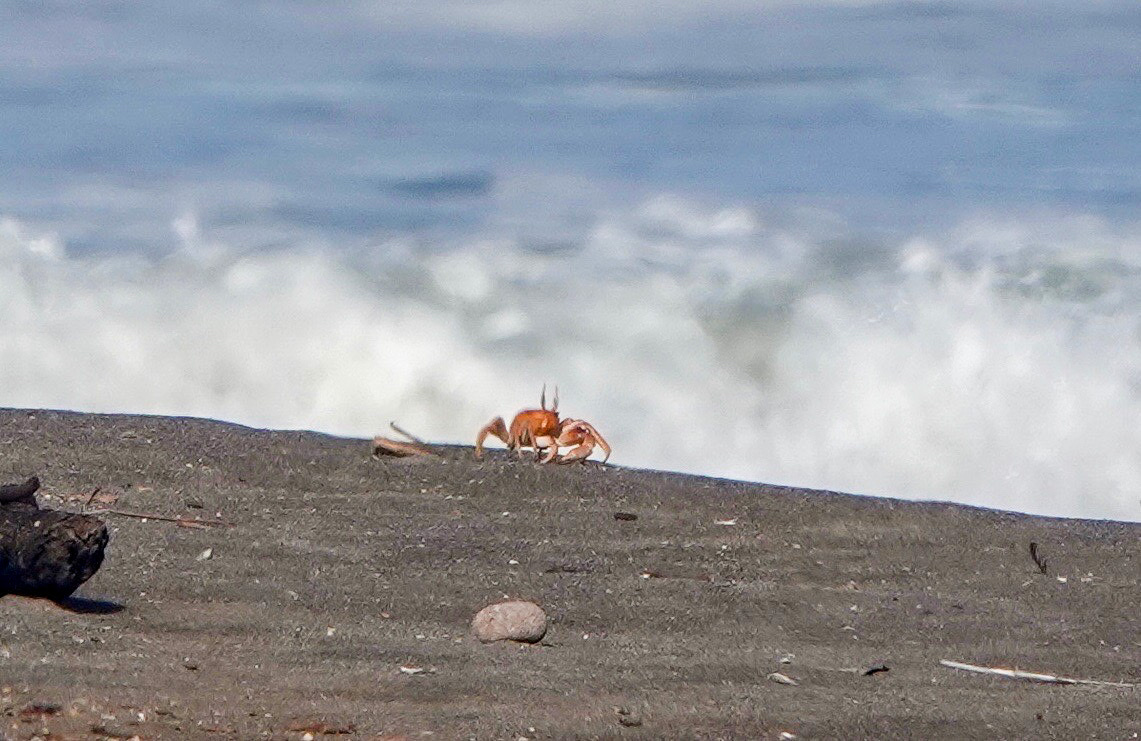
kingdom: Animalia
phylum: Arthropoda
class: Malacostraca
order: Decapoda
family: Ocypodidae
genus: Ocypode
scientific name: Ocypode gaudichaudii
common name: Pacific ghost crab
